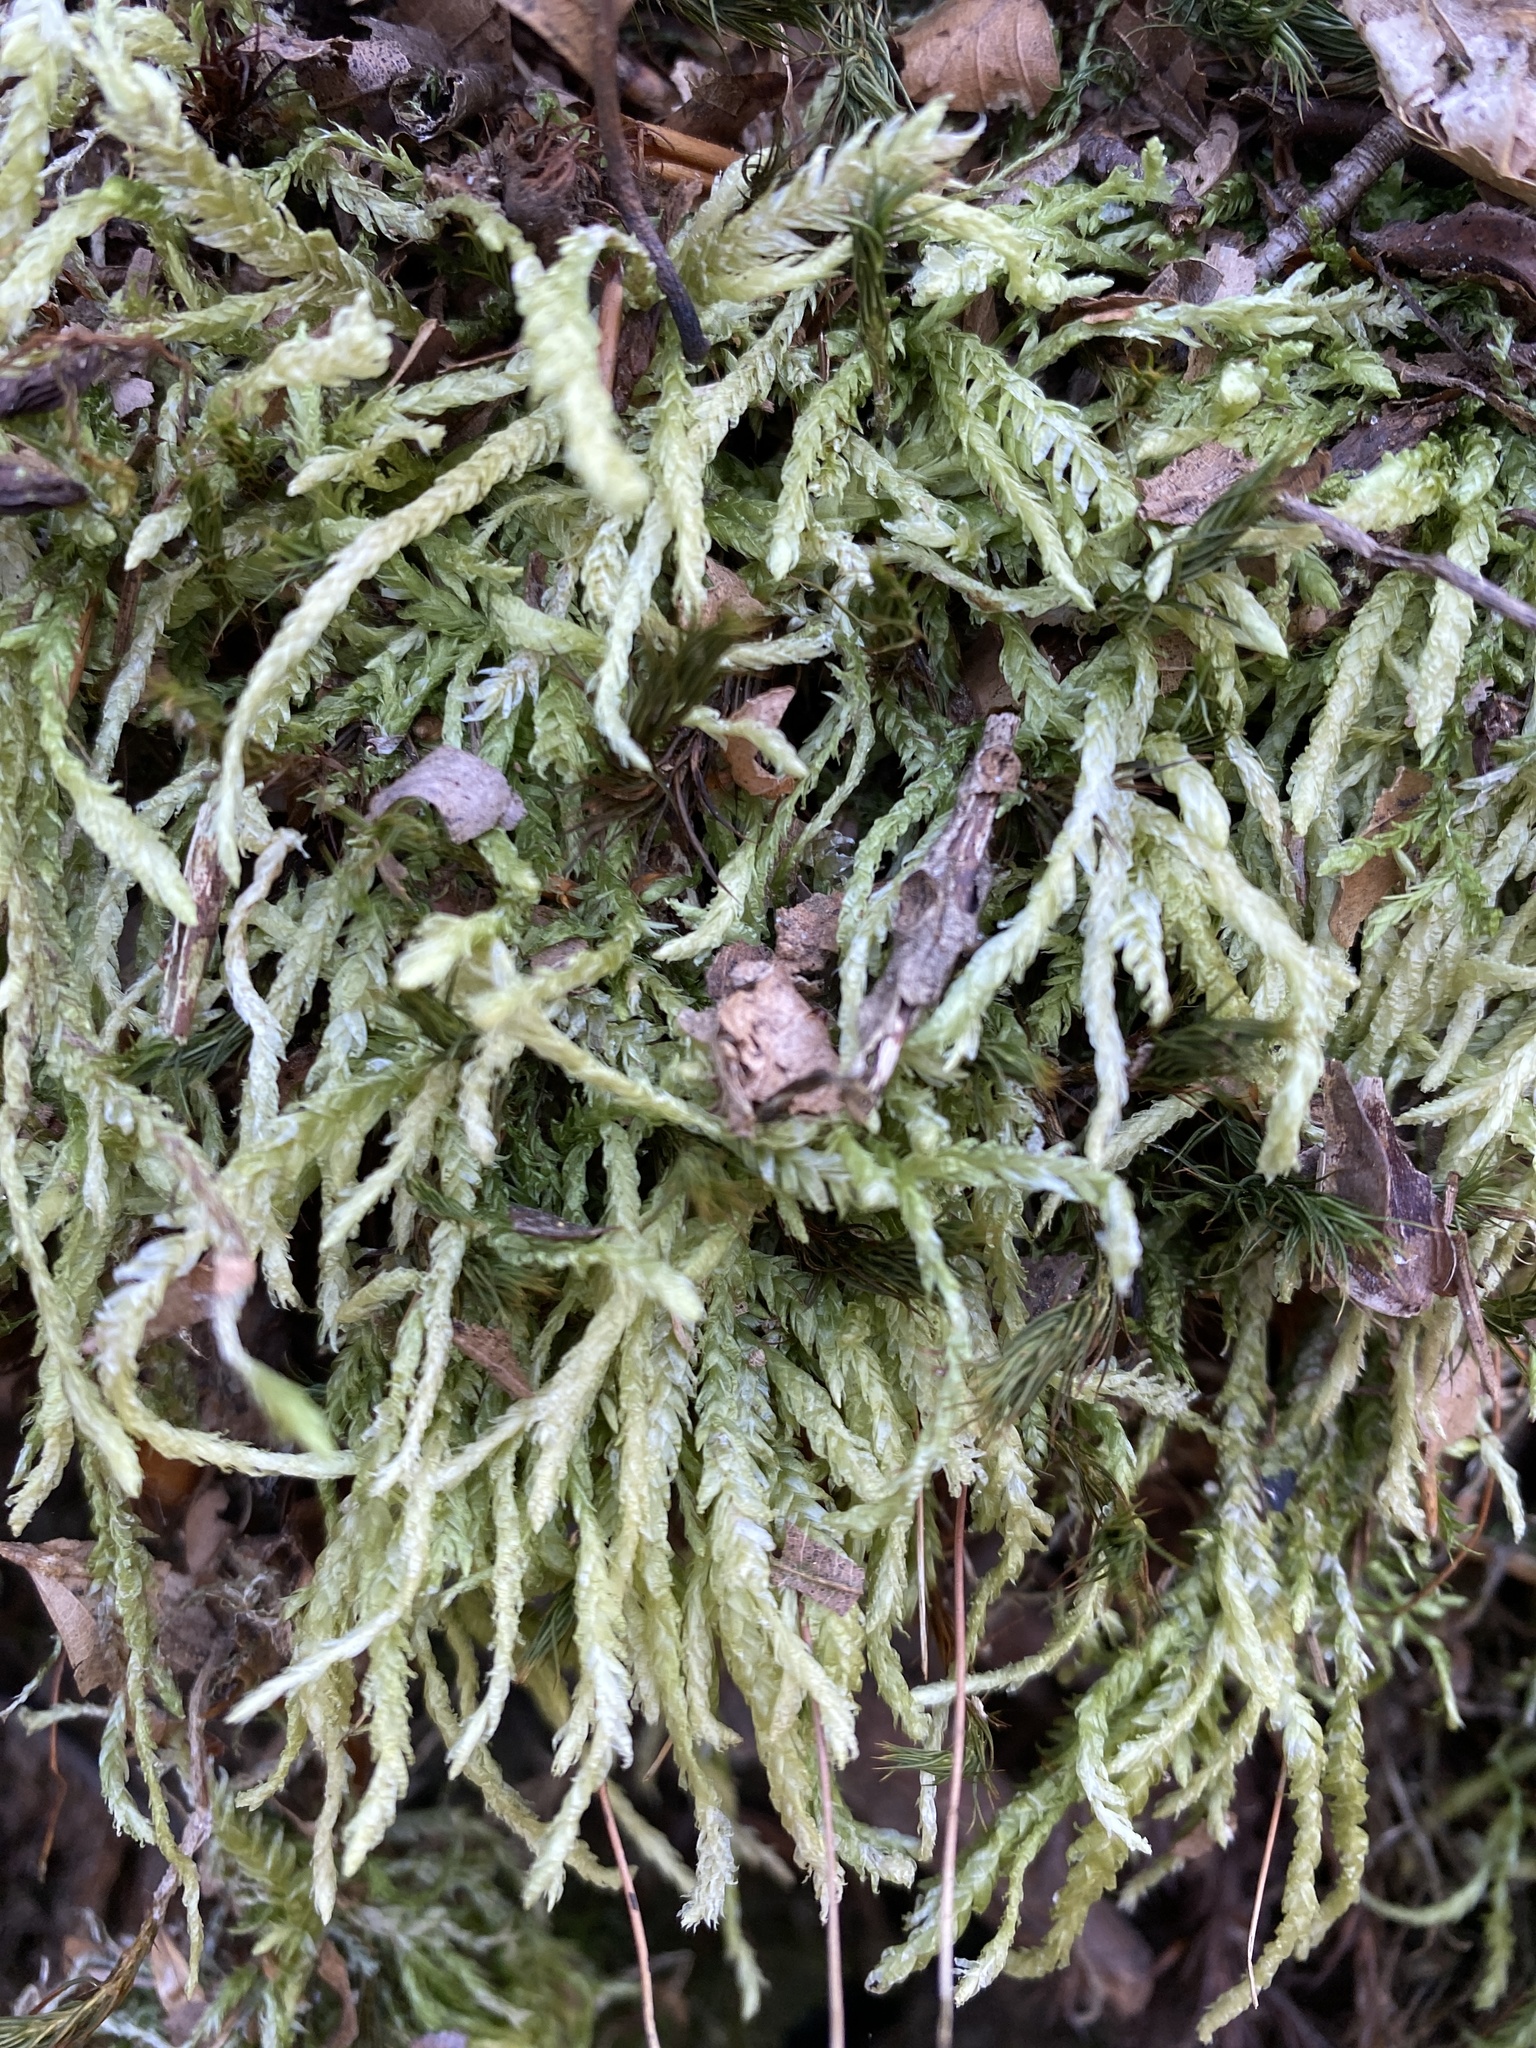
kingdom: Plantae
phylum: Bryophyta
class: Bryopsida
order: Hypnales
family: Plagiotheciaceae
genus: Plagiothecium
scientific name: Plagiothecium undulatum
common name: Waved silk-moss
